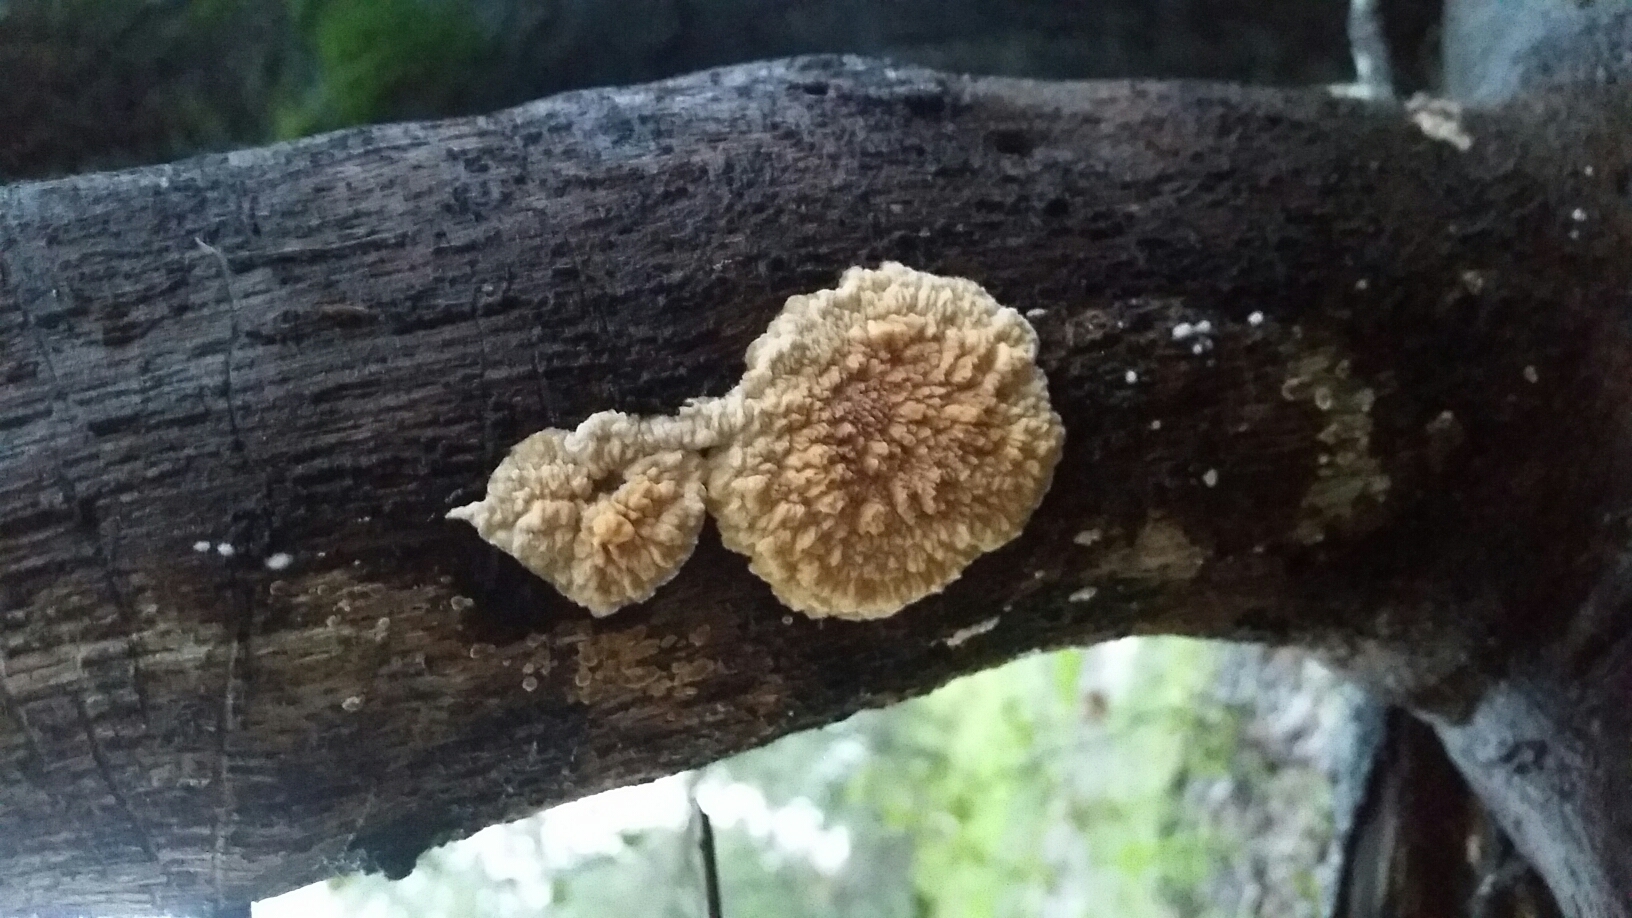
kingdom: Fungi
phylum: Basidiomycota
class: Agaricomycetes
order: Polyporales
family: Meruliaceae
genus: Phlebia
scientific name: Phlebia radiata
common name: Wrinkled crust
